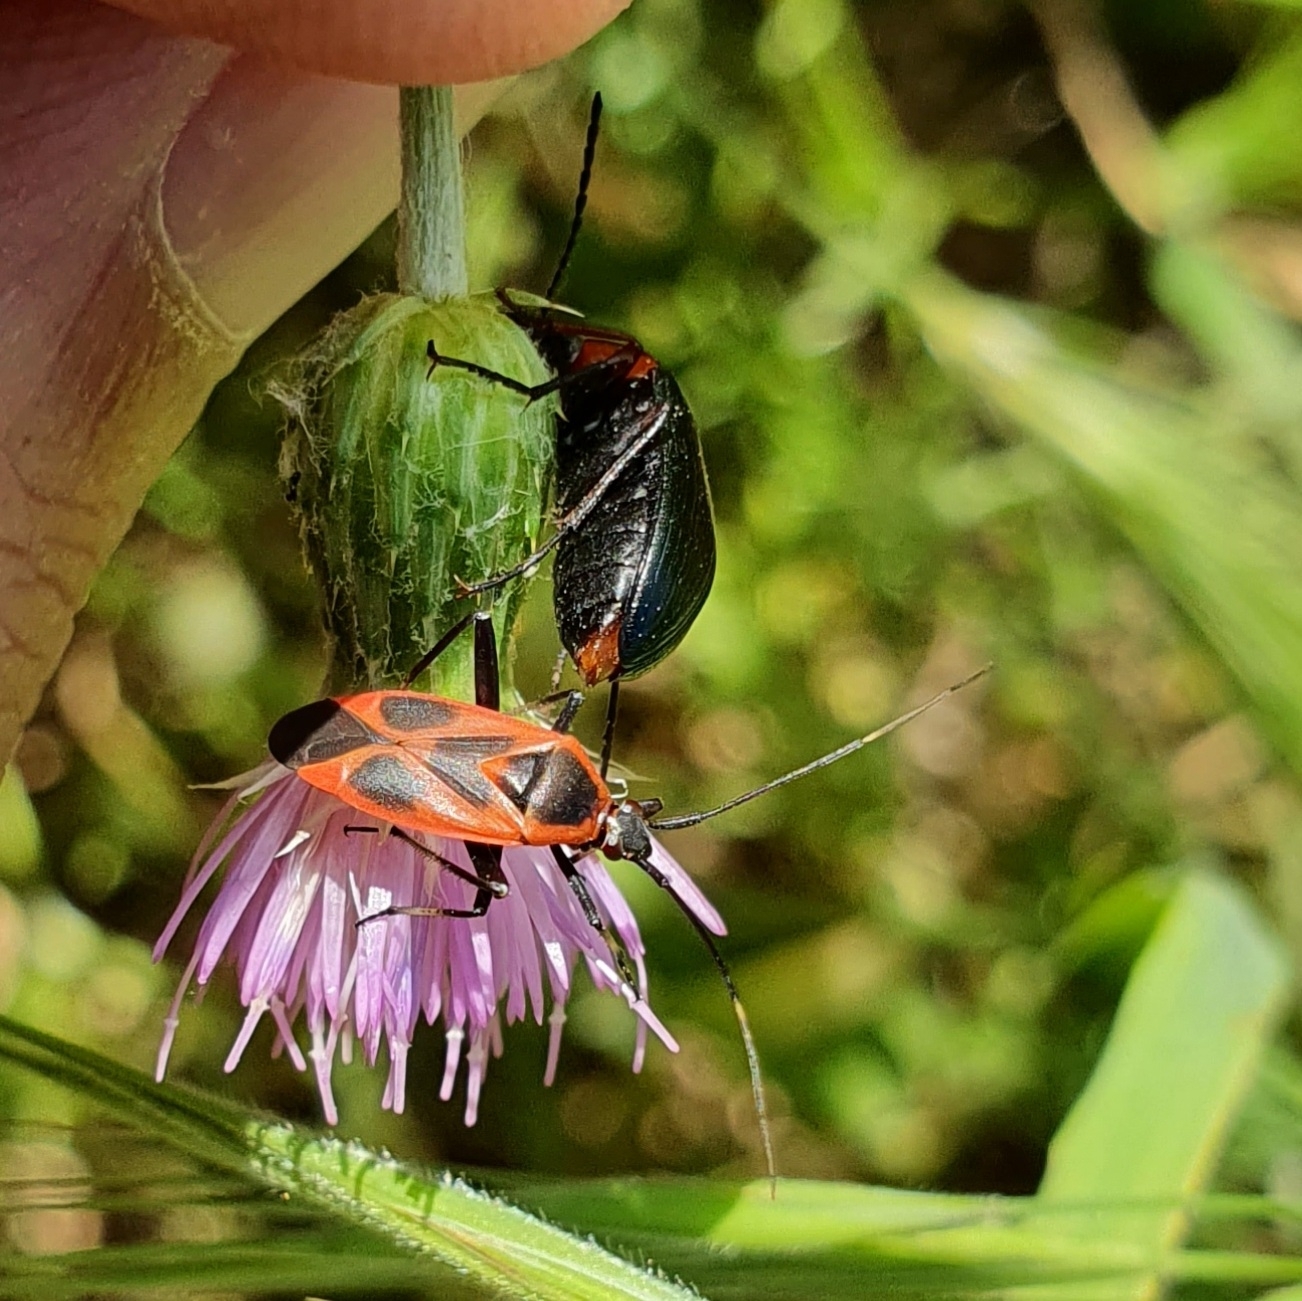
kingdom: Animalia
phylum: Arthropoda
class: Insecta
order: Hemiptera
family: Miridae
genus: Calocoris
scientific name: Calocoris nemoralis
